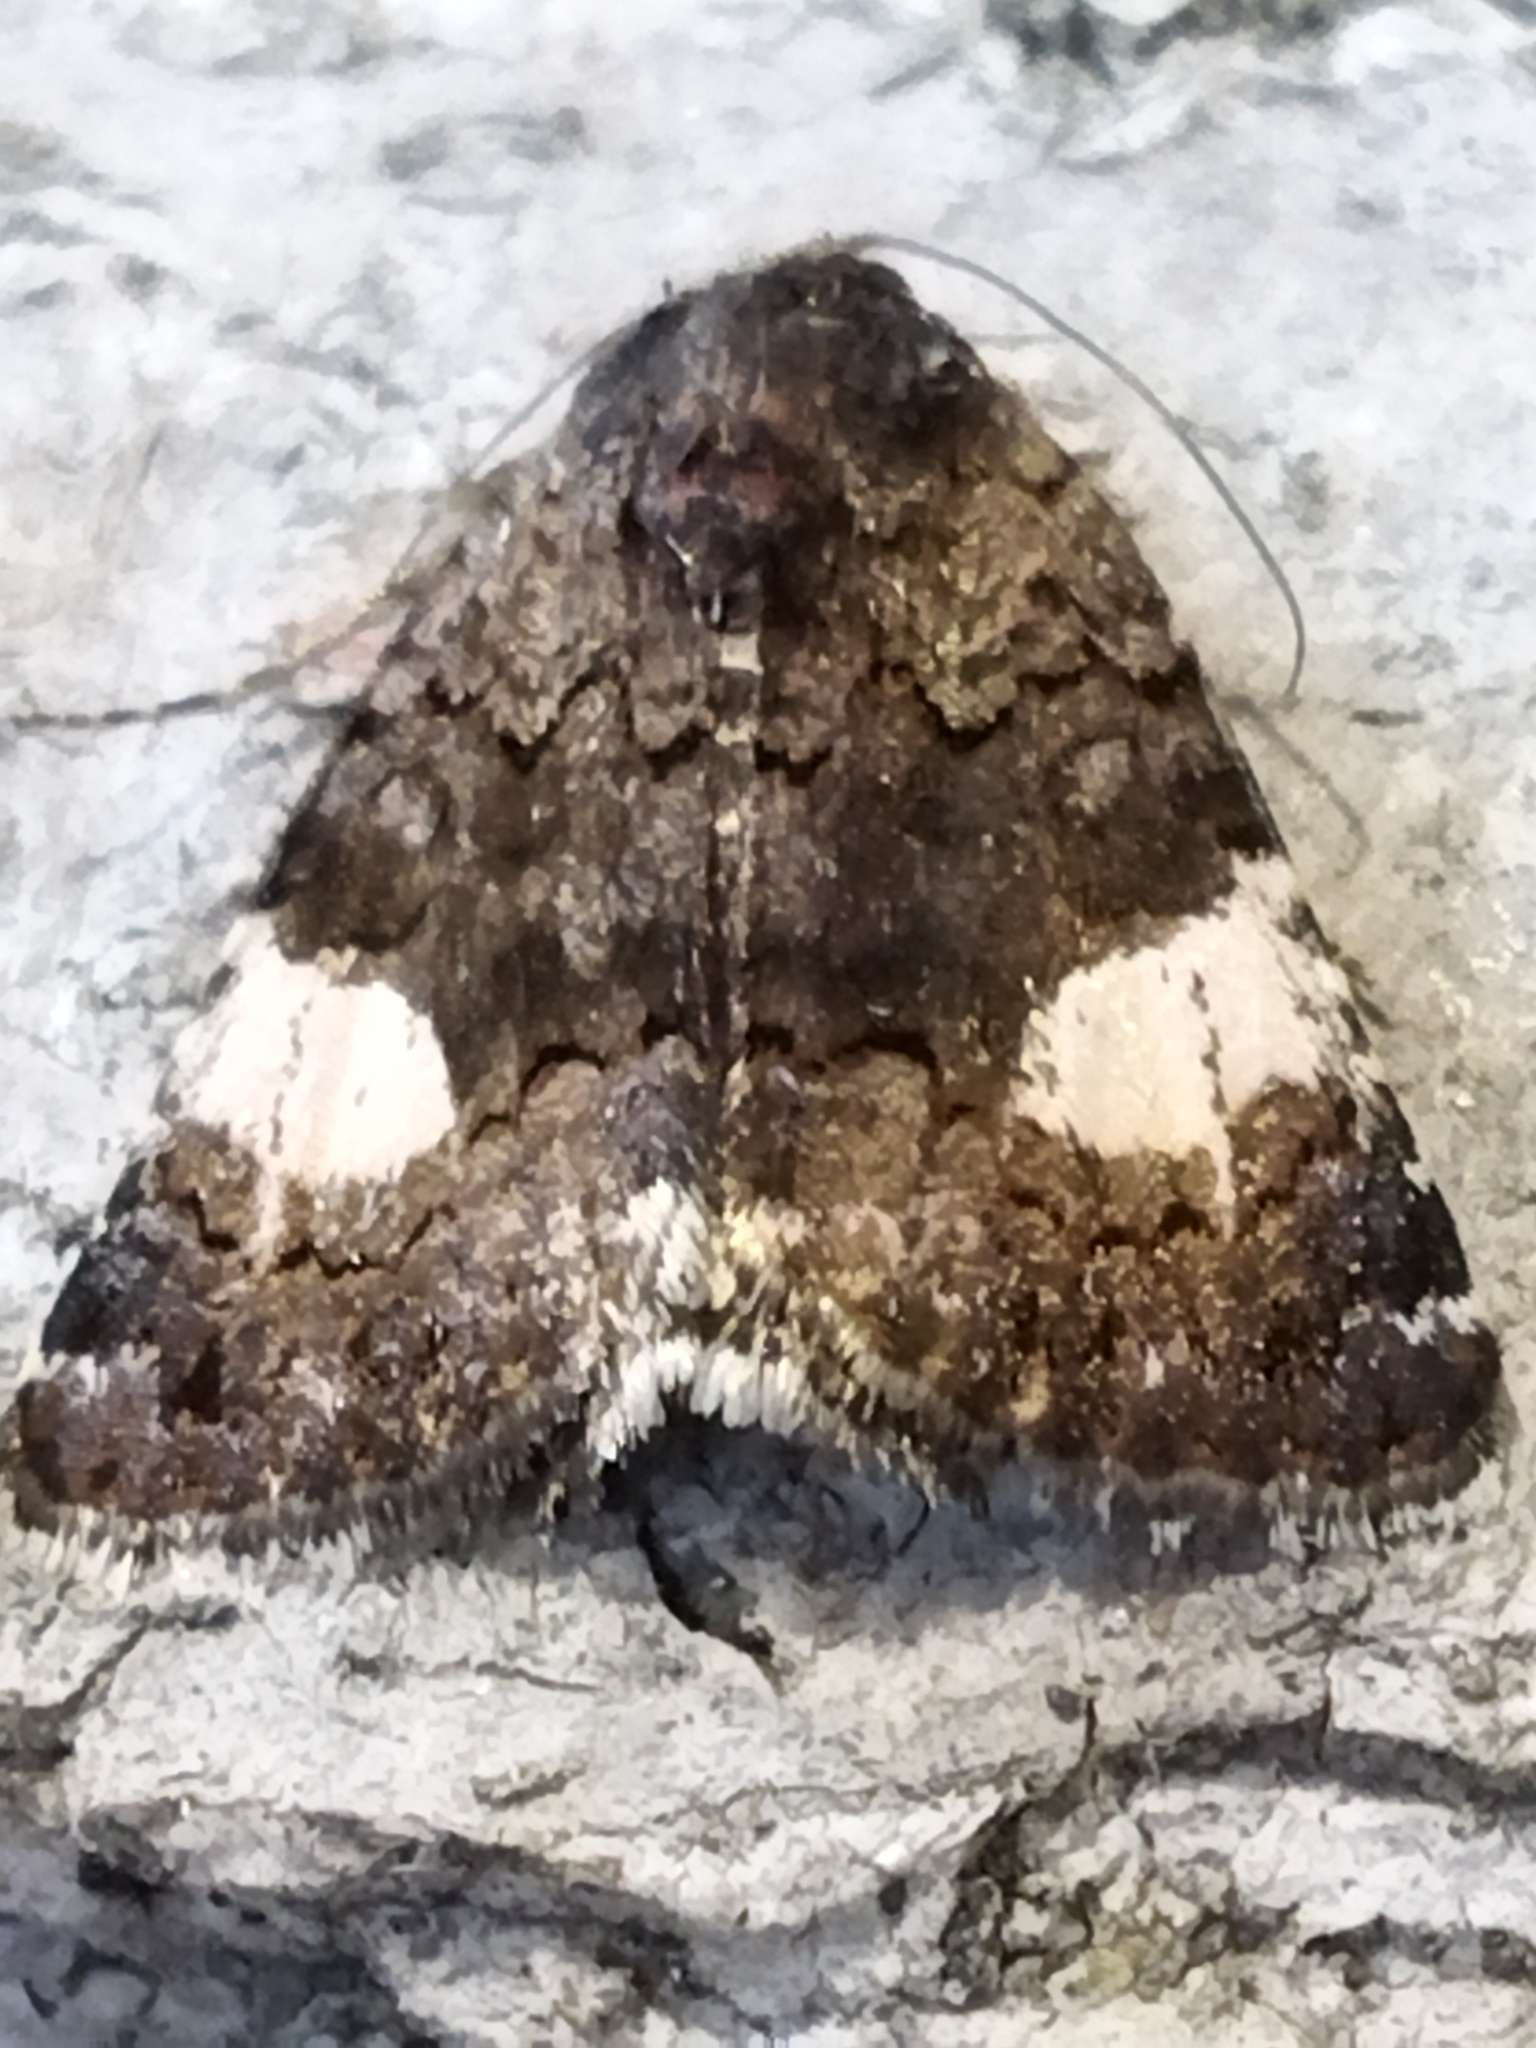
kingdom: Animalia
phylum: Arthropoda
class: Insecta
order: Lepidoptera
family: Erebidae
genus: Tyta
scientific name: Tyta luctuosa
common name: Four-spotted
